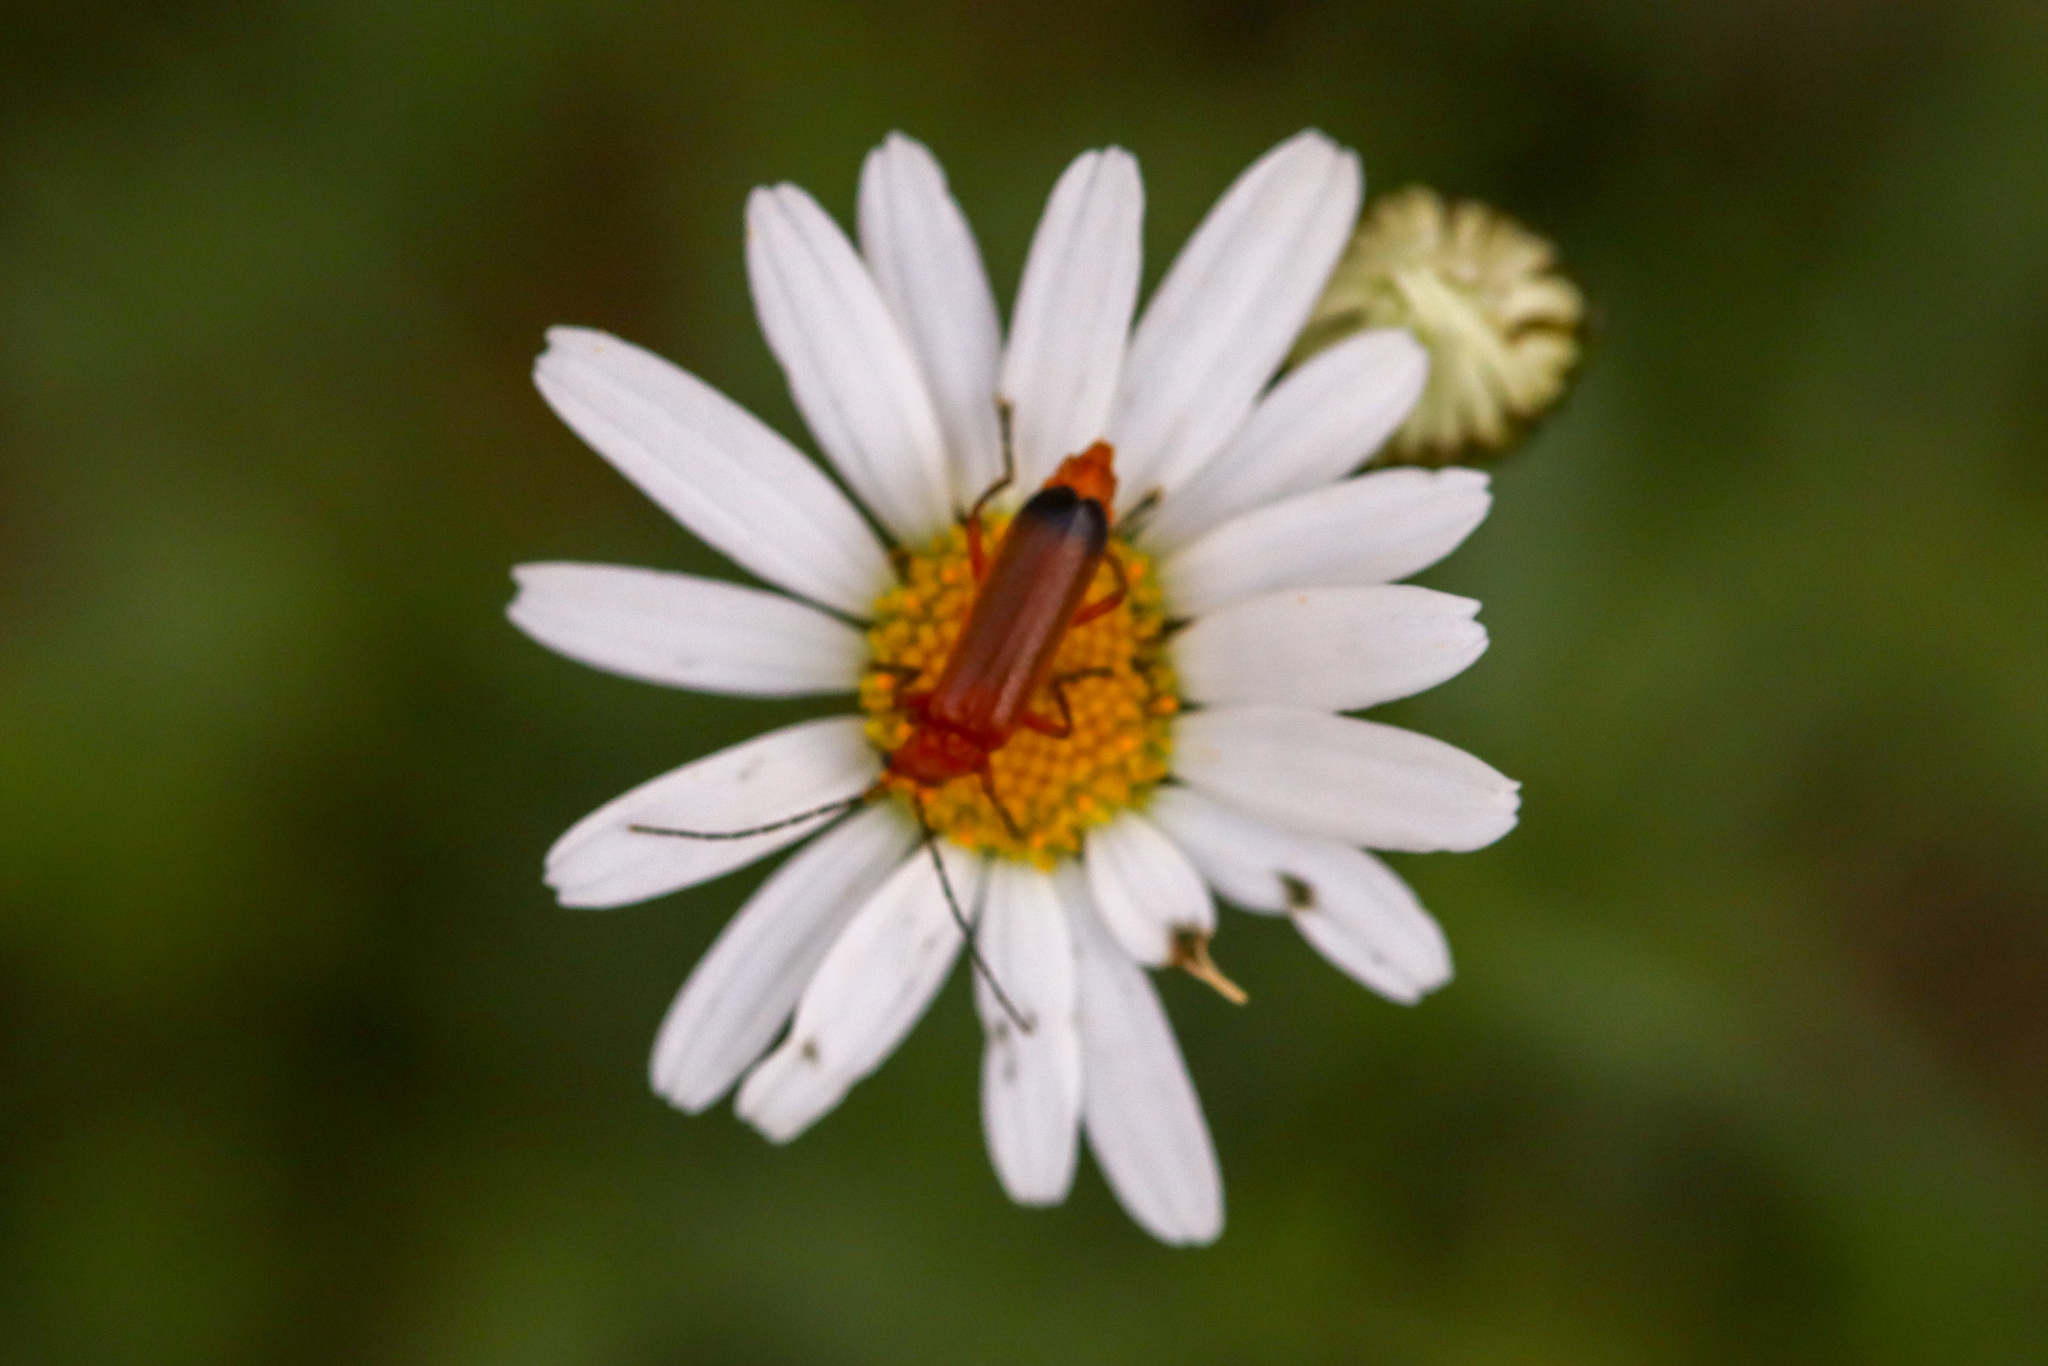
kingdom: Animalia
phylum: Arthropoda
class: Insecta
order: Coleoptera
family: Cantharidae
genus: Rhagonycha
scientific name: Rhagonycha fulva
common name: Common red soldier beetle
